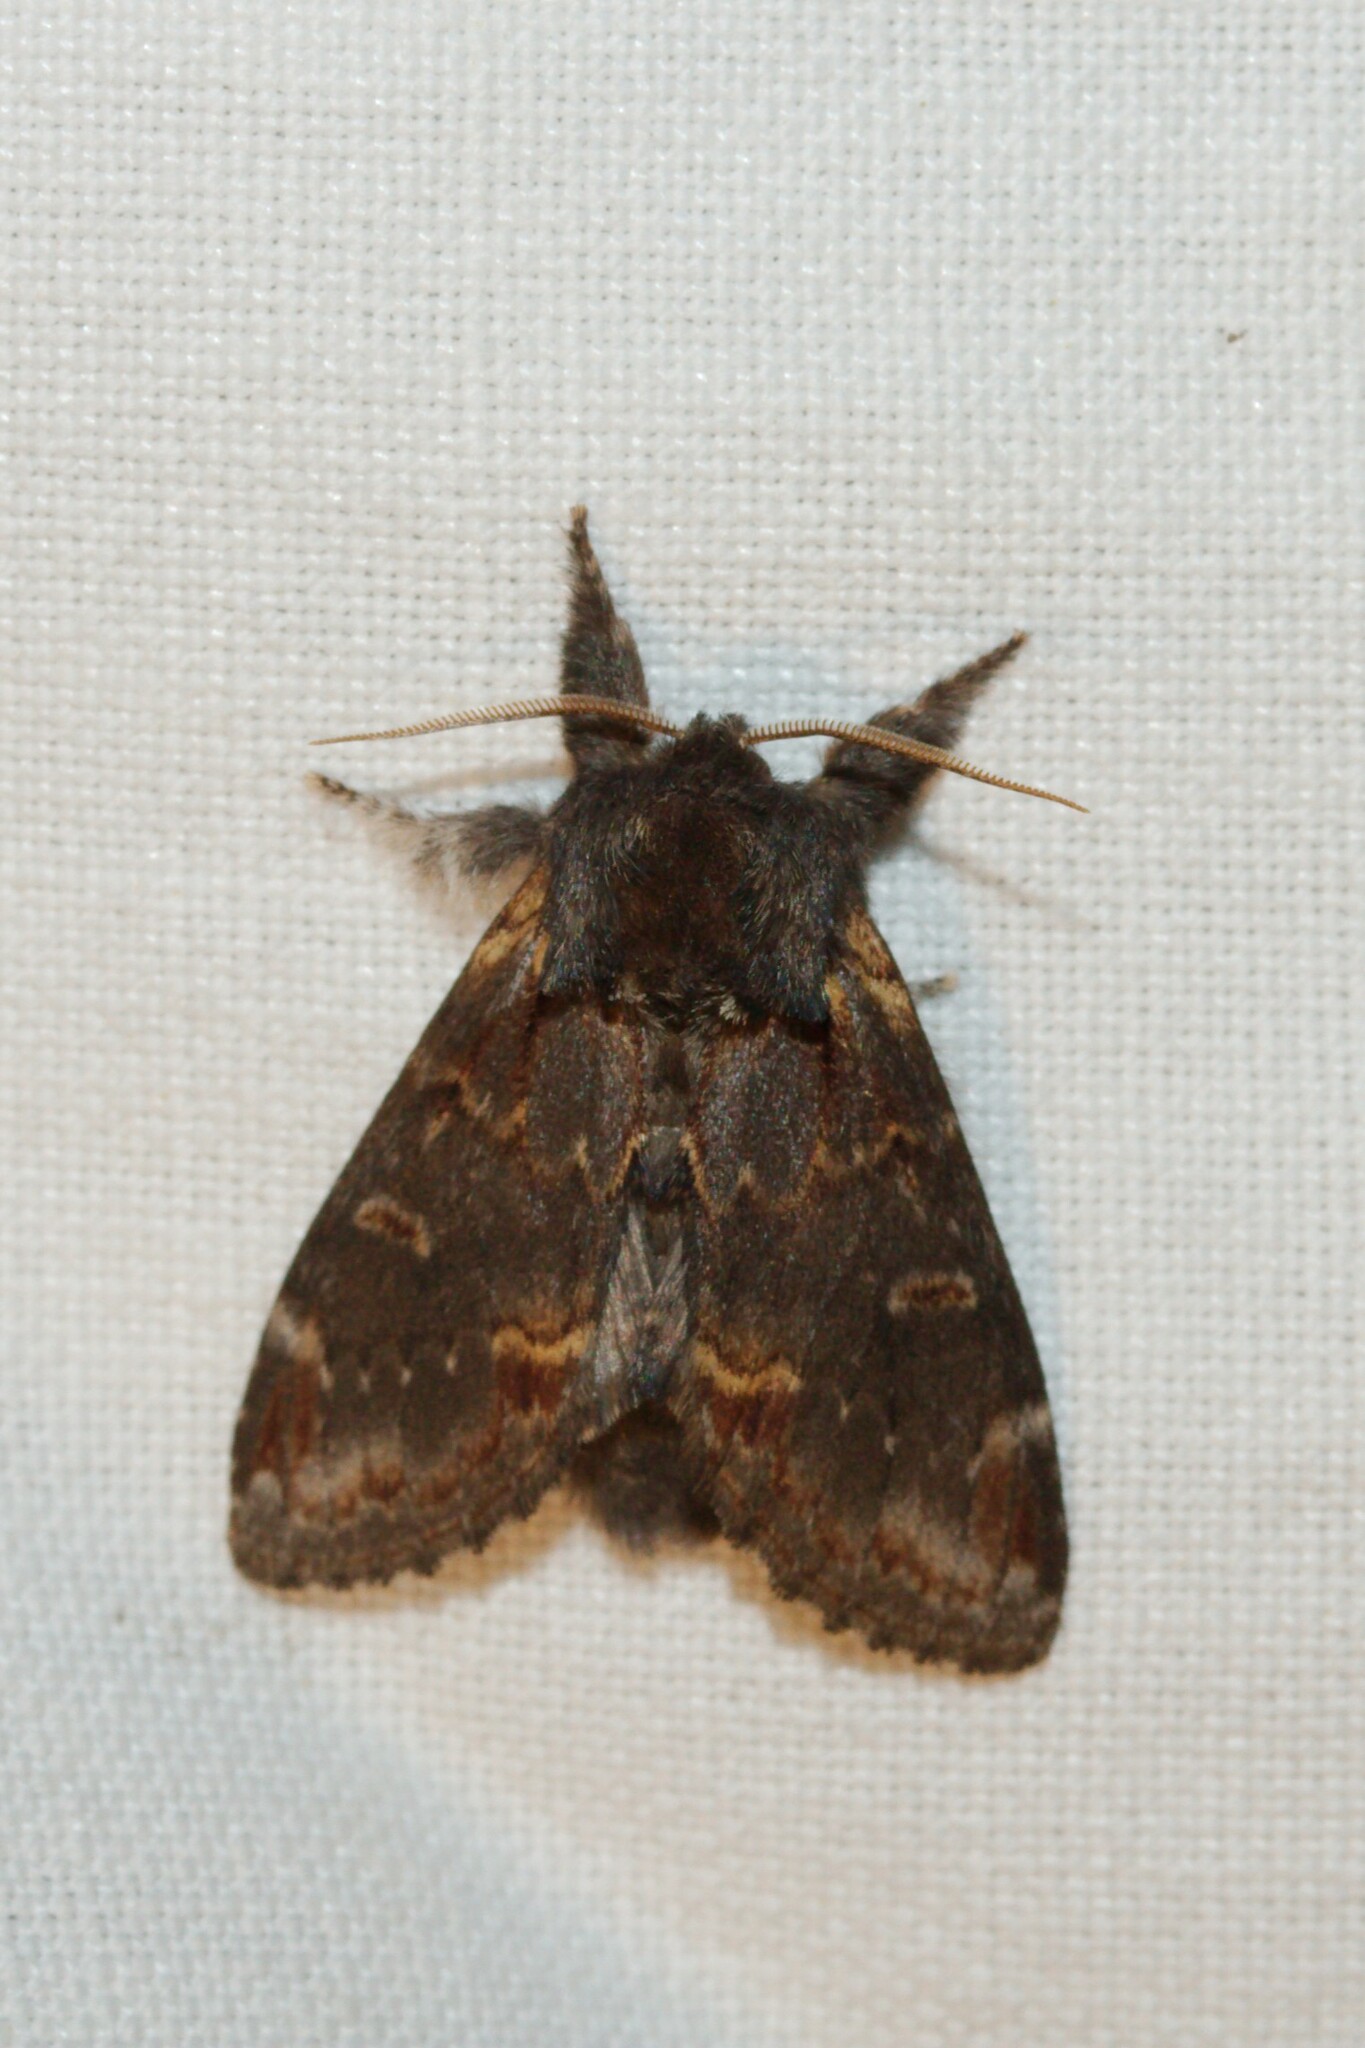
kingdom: Animalia
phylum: Arthropoda
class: Insecta
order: Lepidoptera
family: Notodontidae
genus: Notodonta
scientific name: Notodonta dromedarius
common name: Iron prominent
